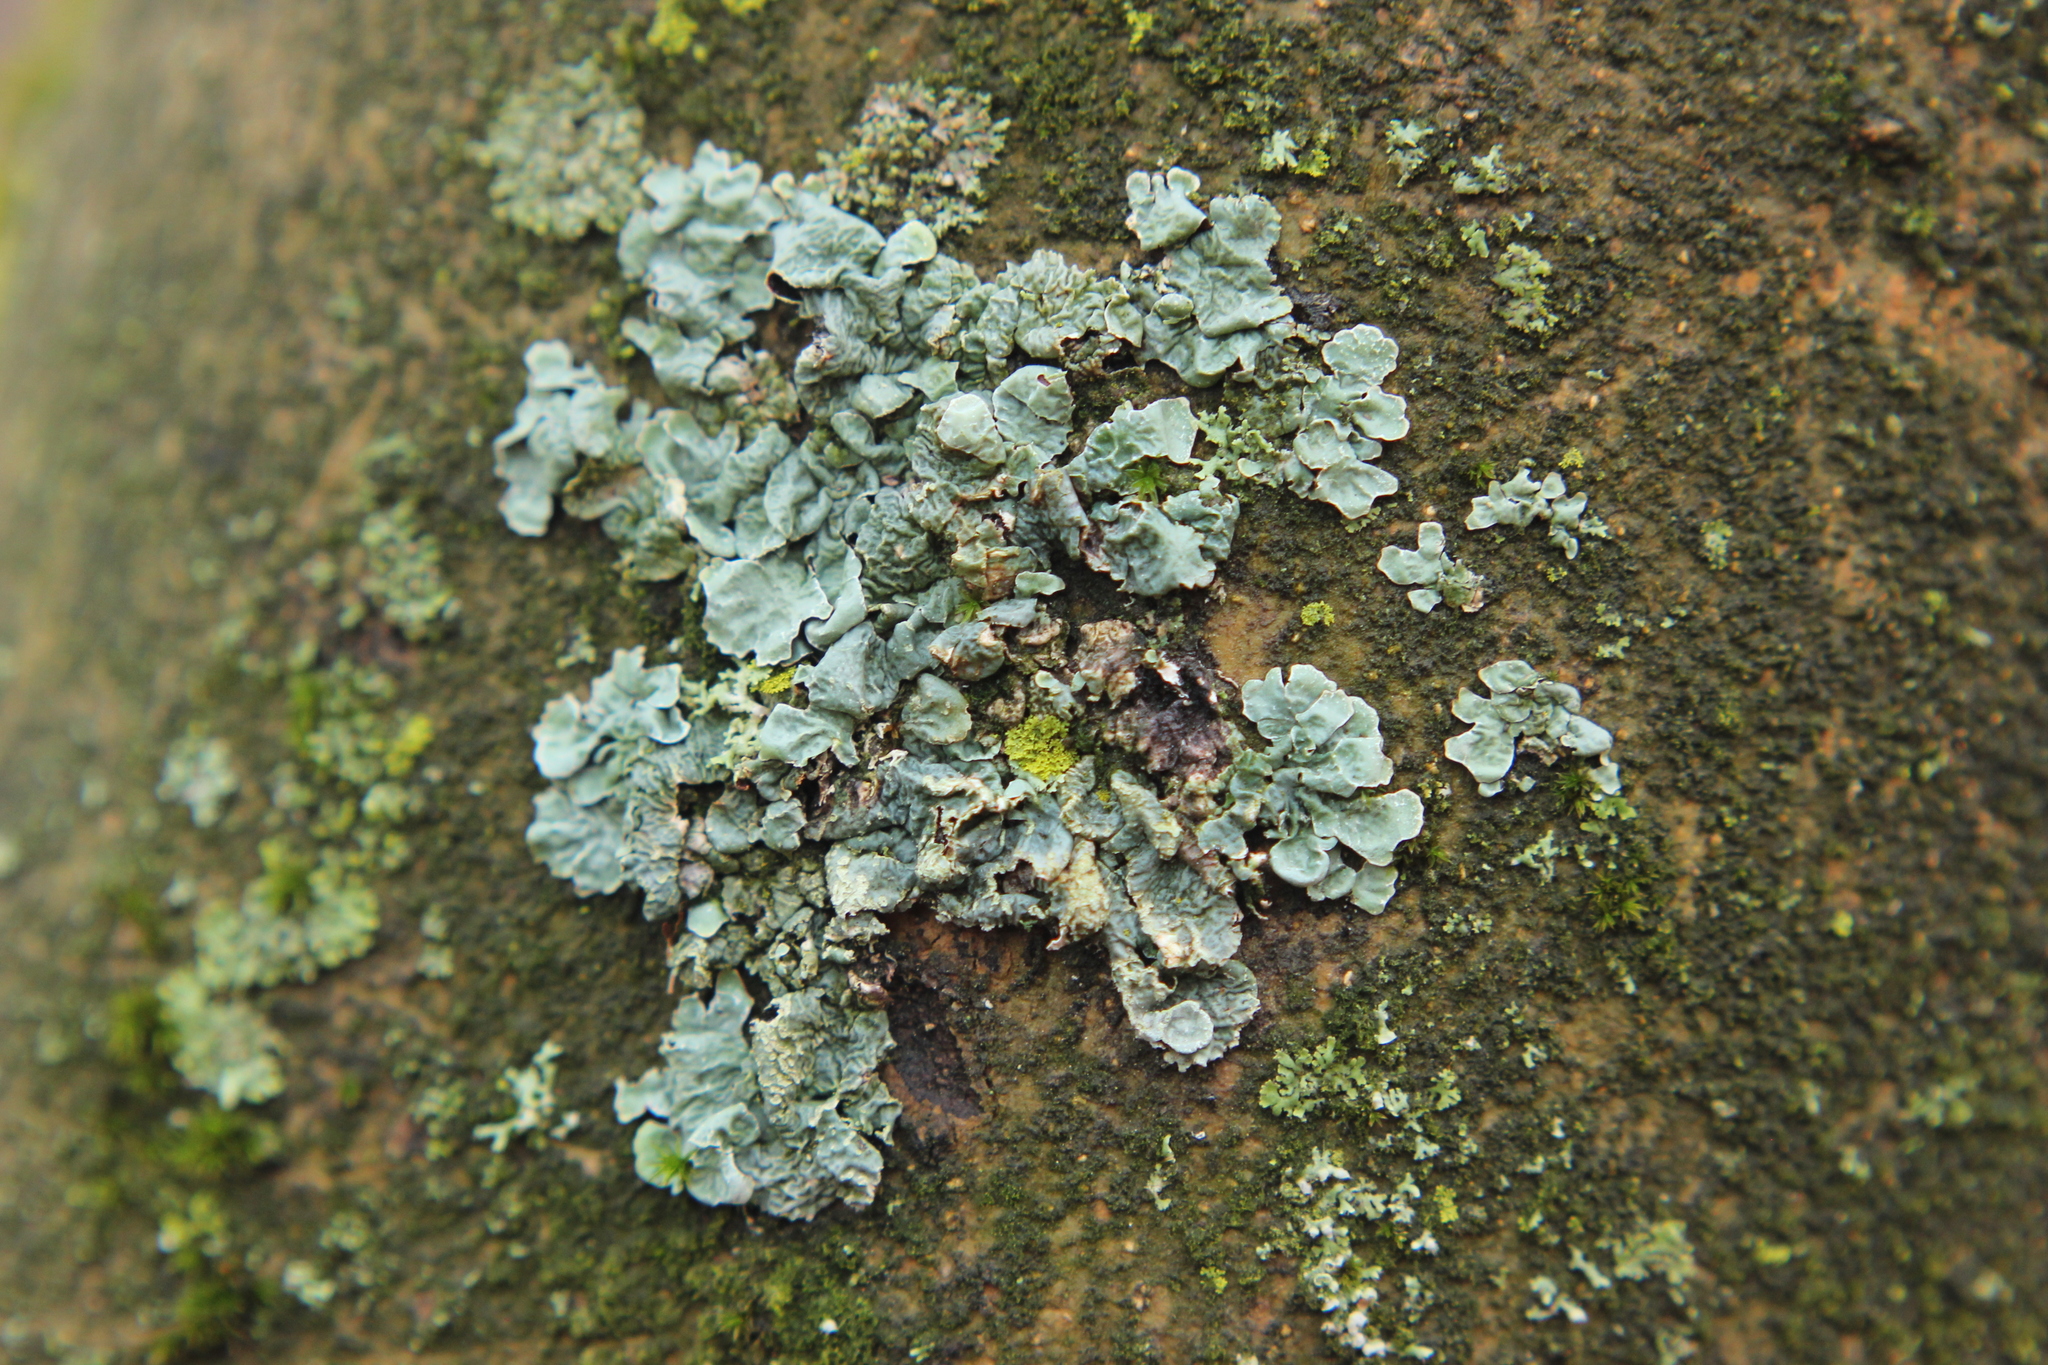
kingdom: Fungi
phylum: Ascomycota
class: Lecanoromycetes
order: Lecanorales
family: Parmeliaceae
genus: Parmelia
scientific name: Parmelia sulcata
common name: Netted shield lichen
